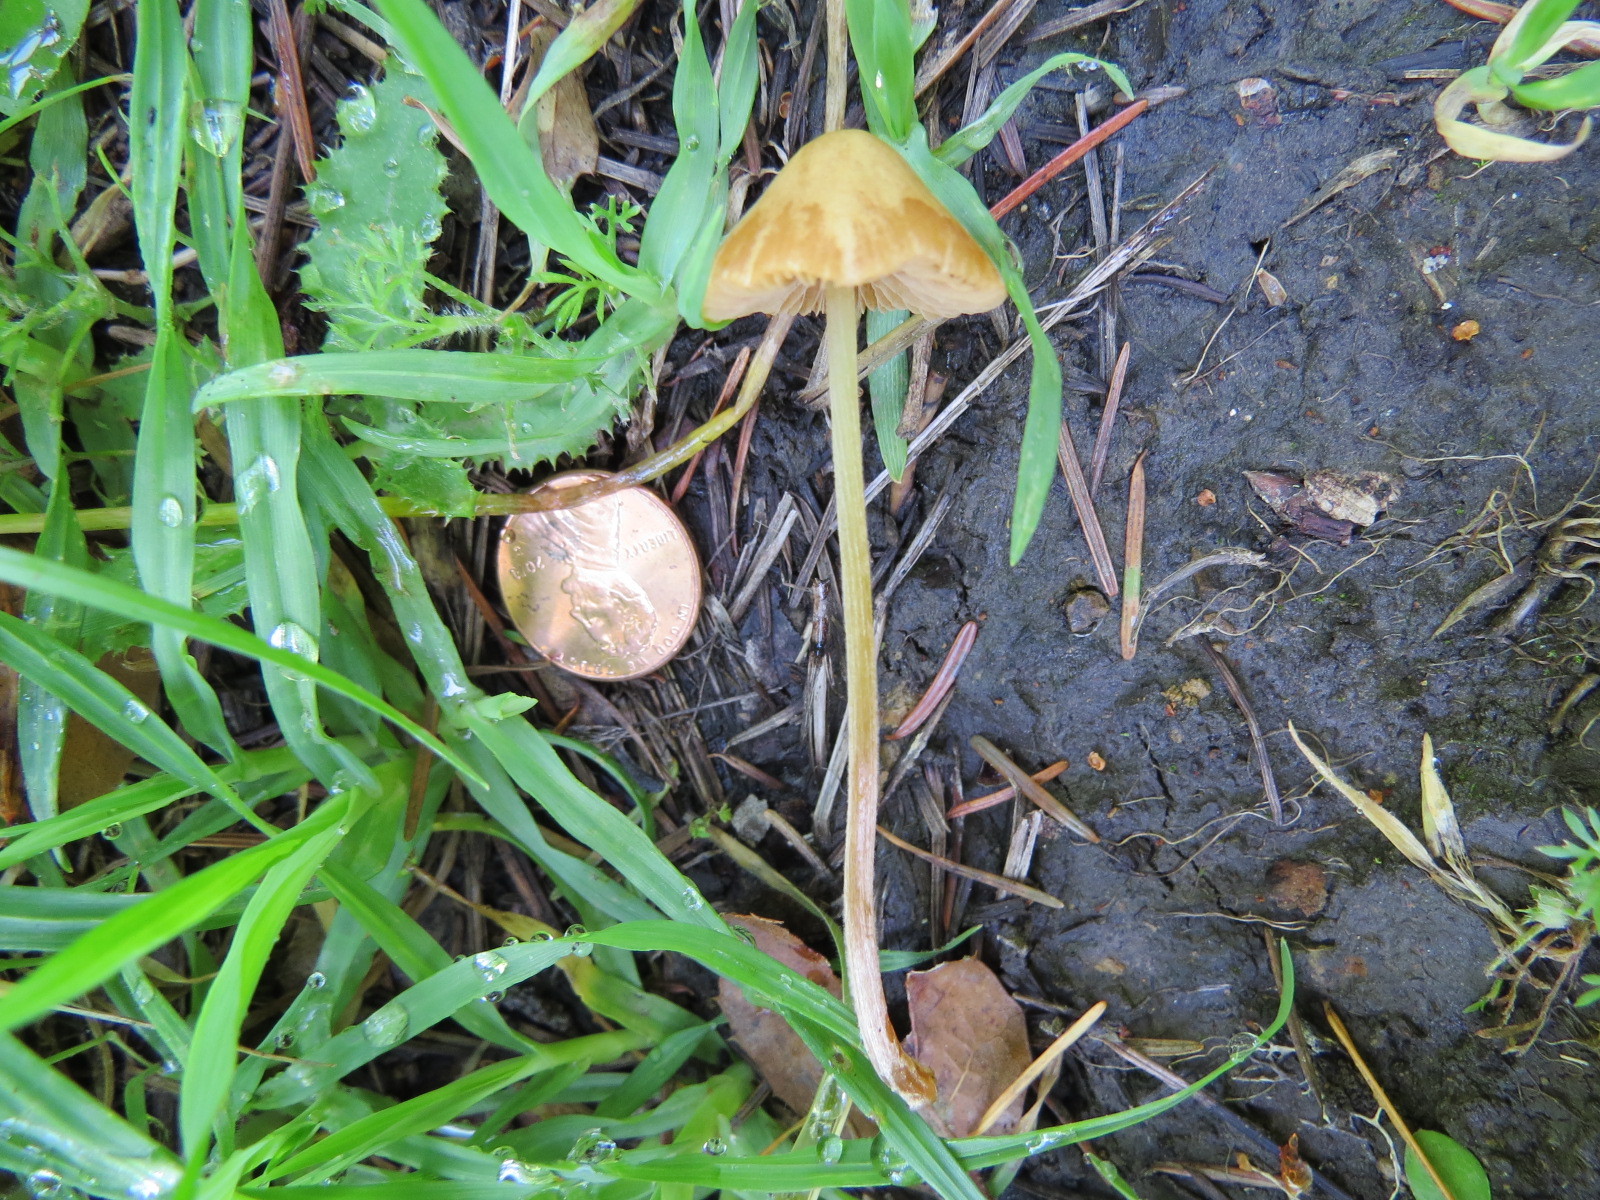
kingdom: Fungi
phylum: Basidiomycota
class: Agaricomycetes
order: Agaricales
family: Bolbitiaceae
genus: Conocybe
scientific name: Conocybe tenera
